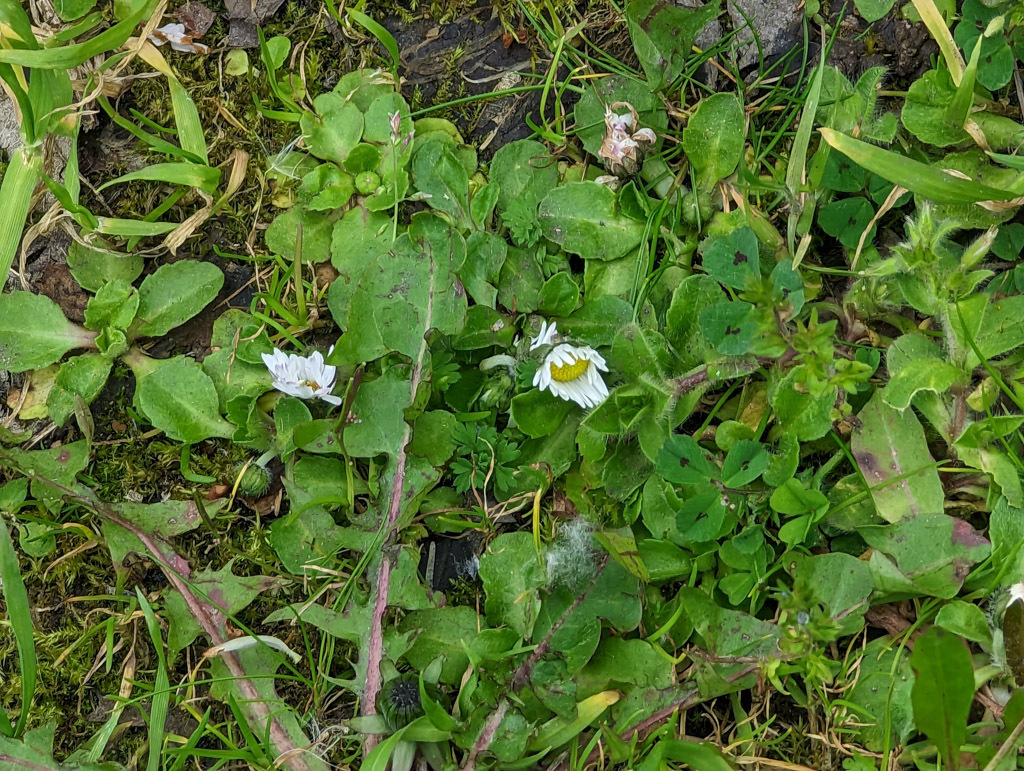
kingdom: Plantae
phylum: Tracheophyta
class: Magnoliopsida
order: Asterales
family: Asteraceae
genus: Bellis
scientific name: Bellis perennis
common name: Lawndaisy
